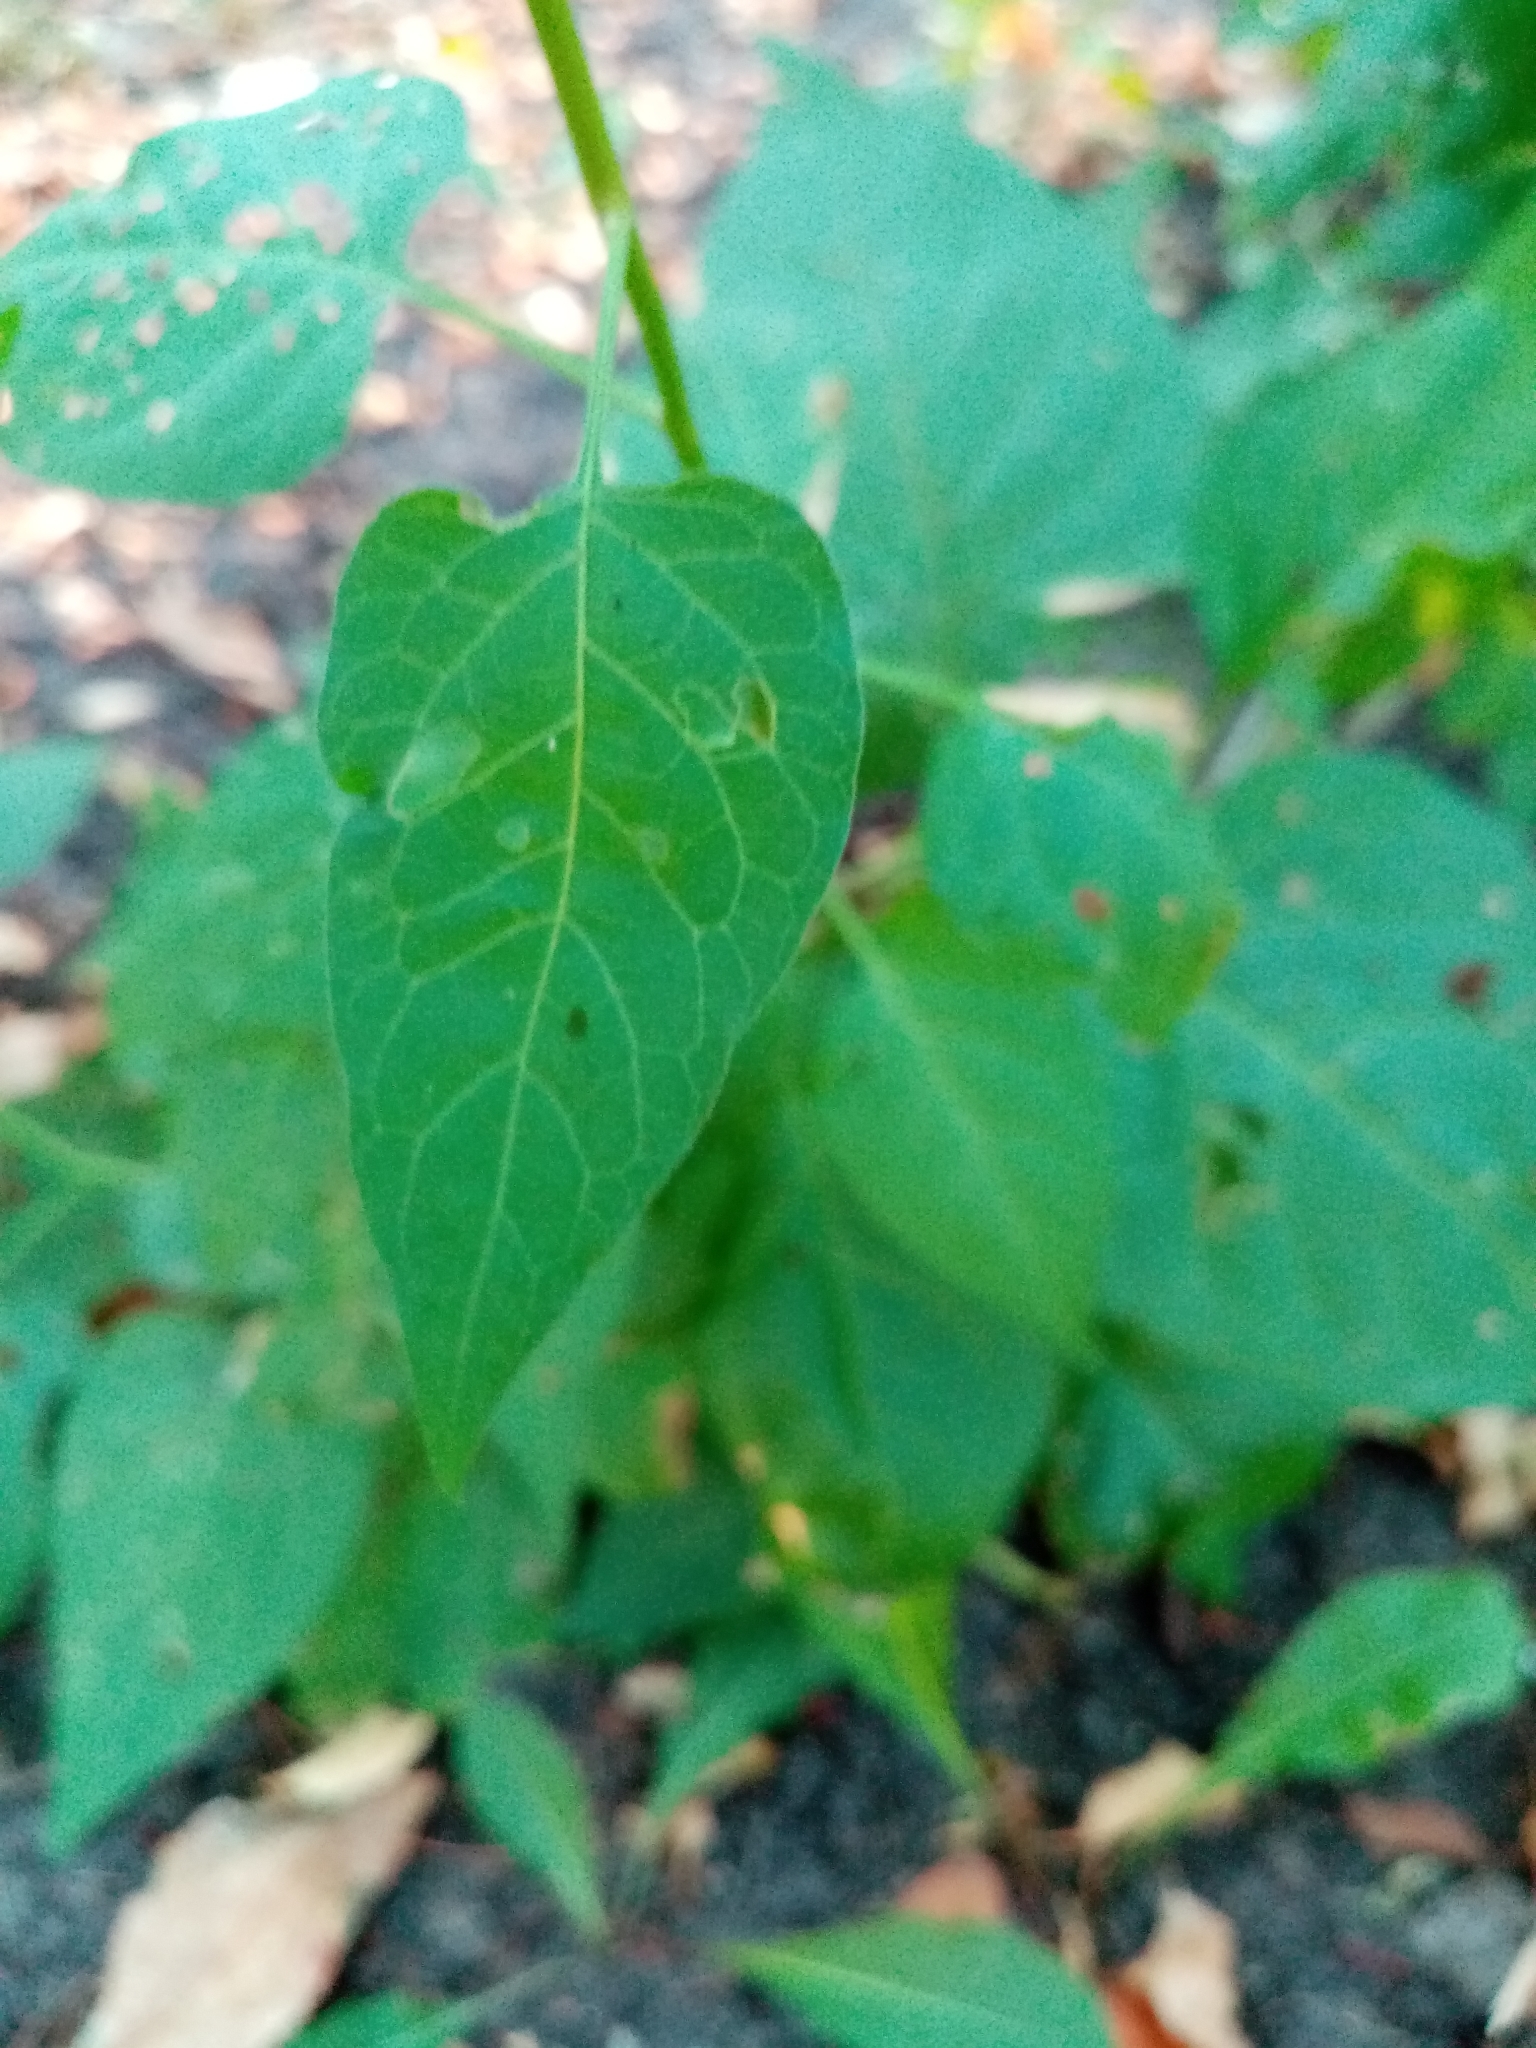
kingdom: Plantae
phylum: Tracheophyta
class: Magnoliopsida
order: Solanales
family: Solanaceae
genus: Solanum
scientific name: Solanum dulcamara
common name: Climbing nightshade
